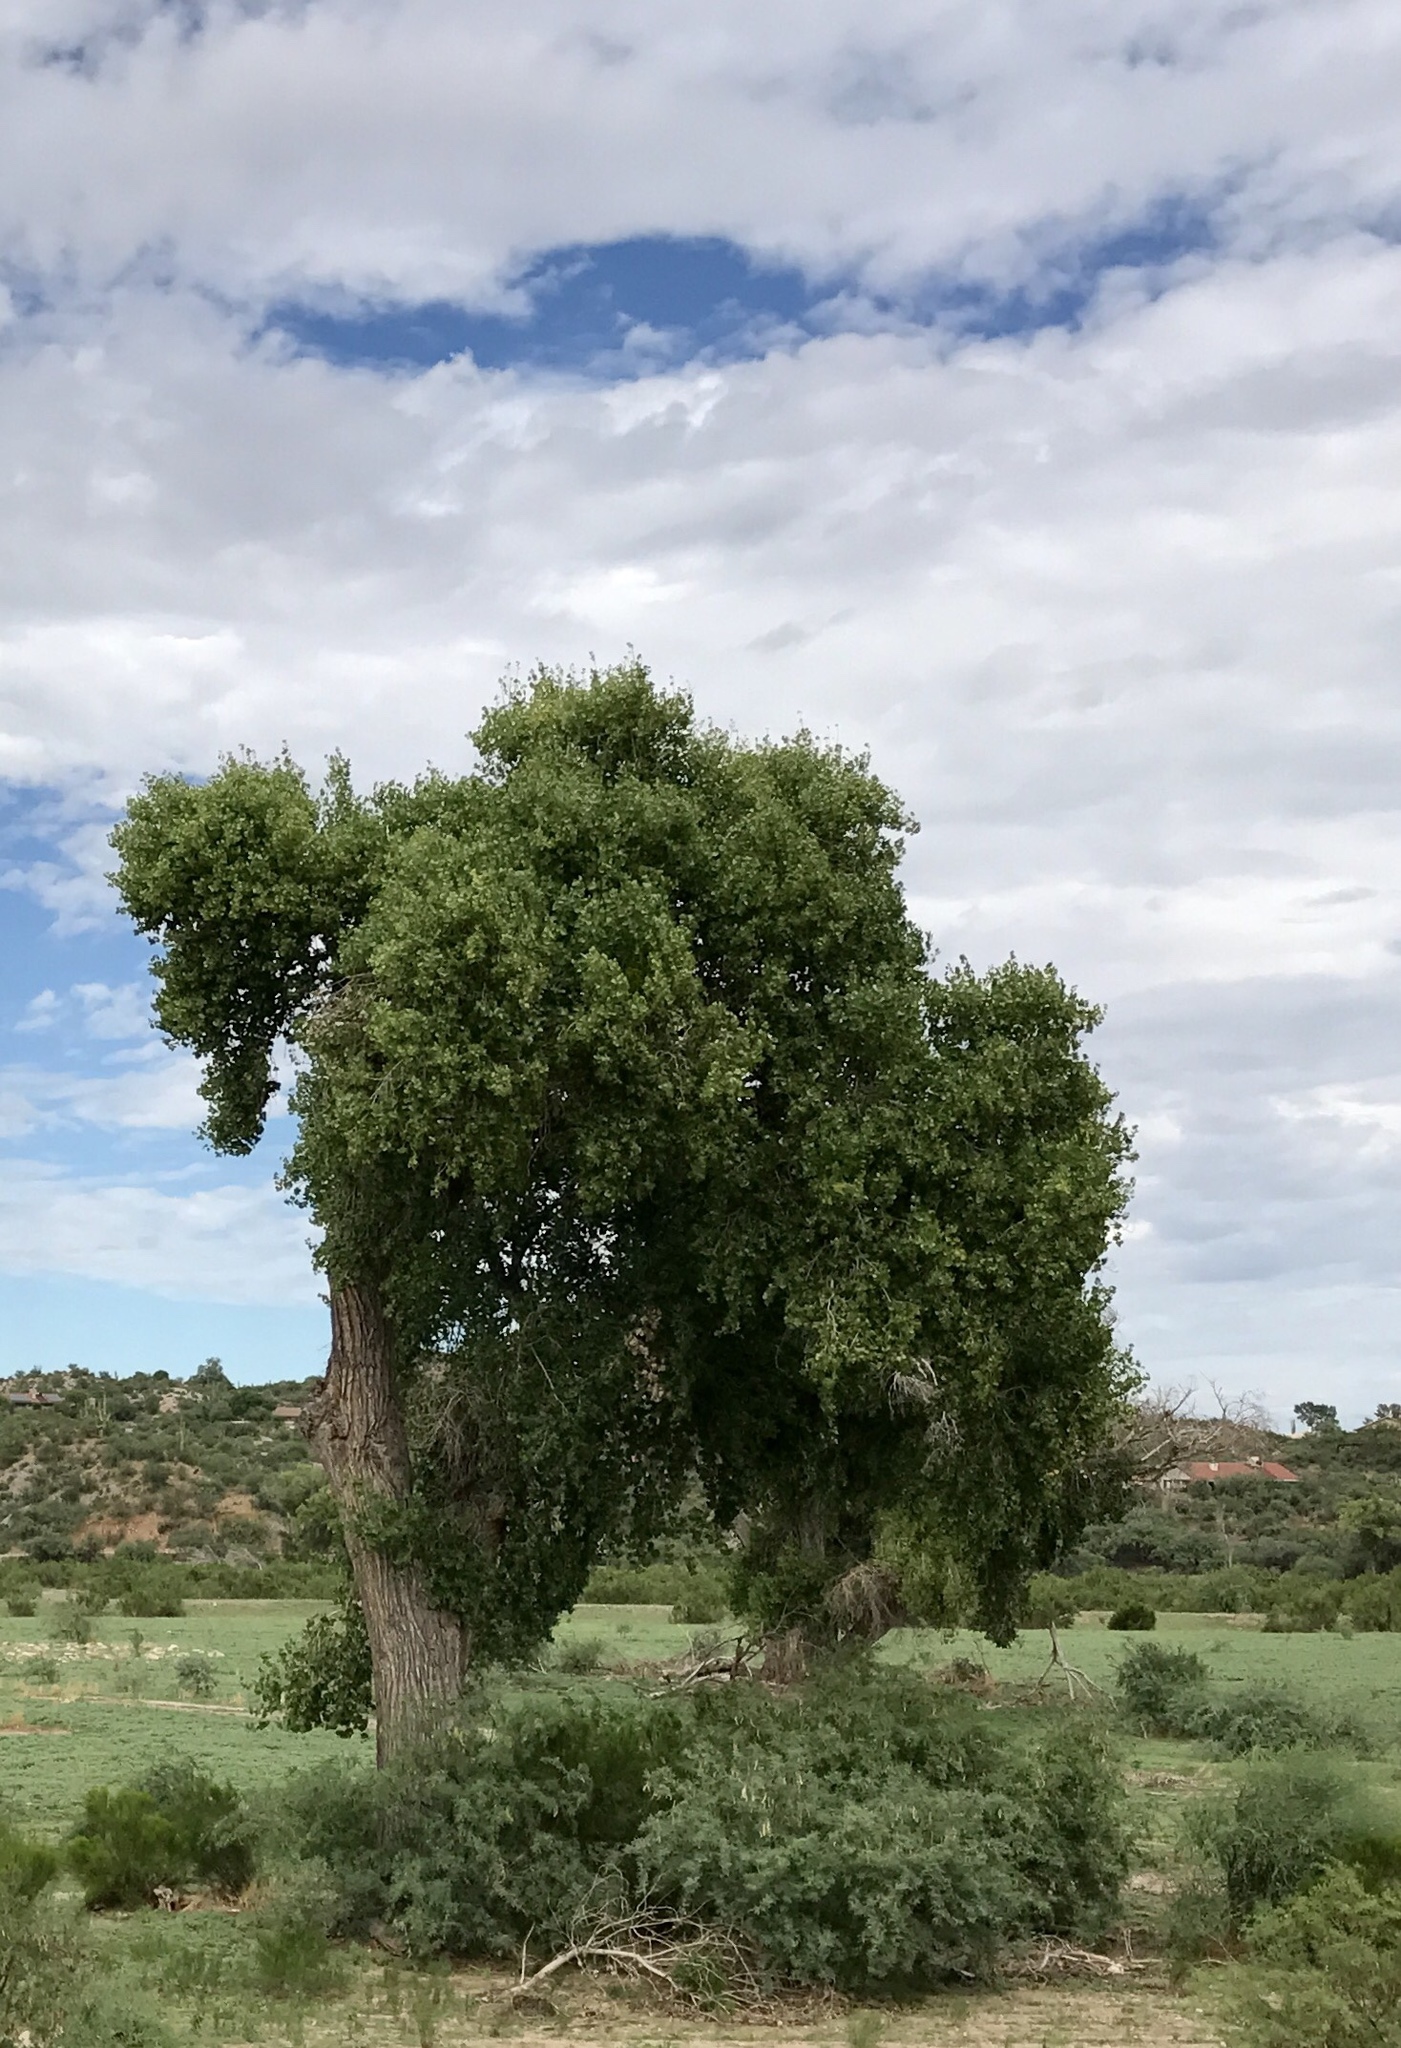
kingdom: Plantae
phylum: Tracheophyta
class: Magnoliopsida
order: Malpighiales
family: Salicaceae
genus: Populus
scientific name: Populus fremontii
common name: Fremont's cottonwood
